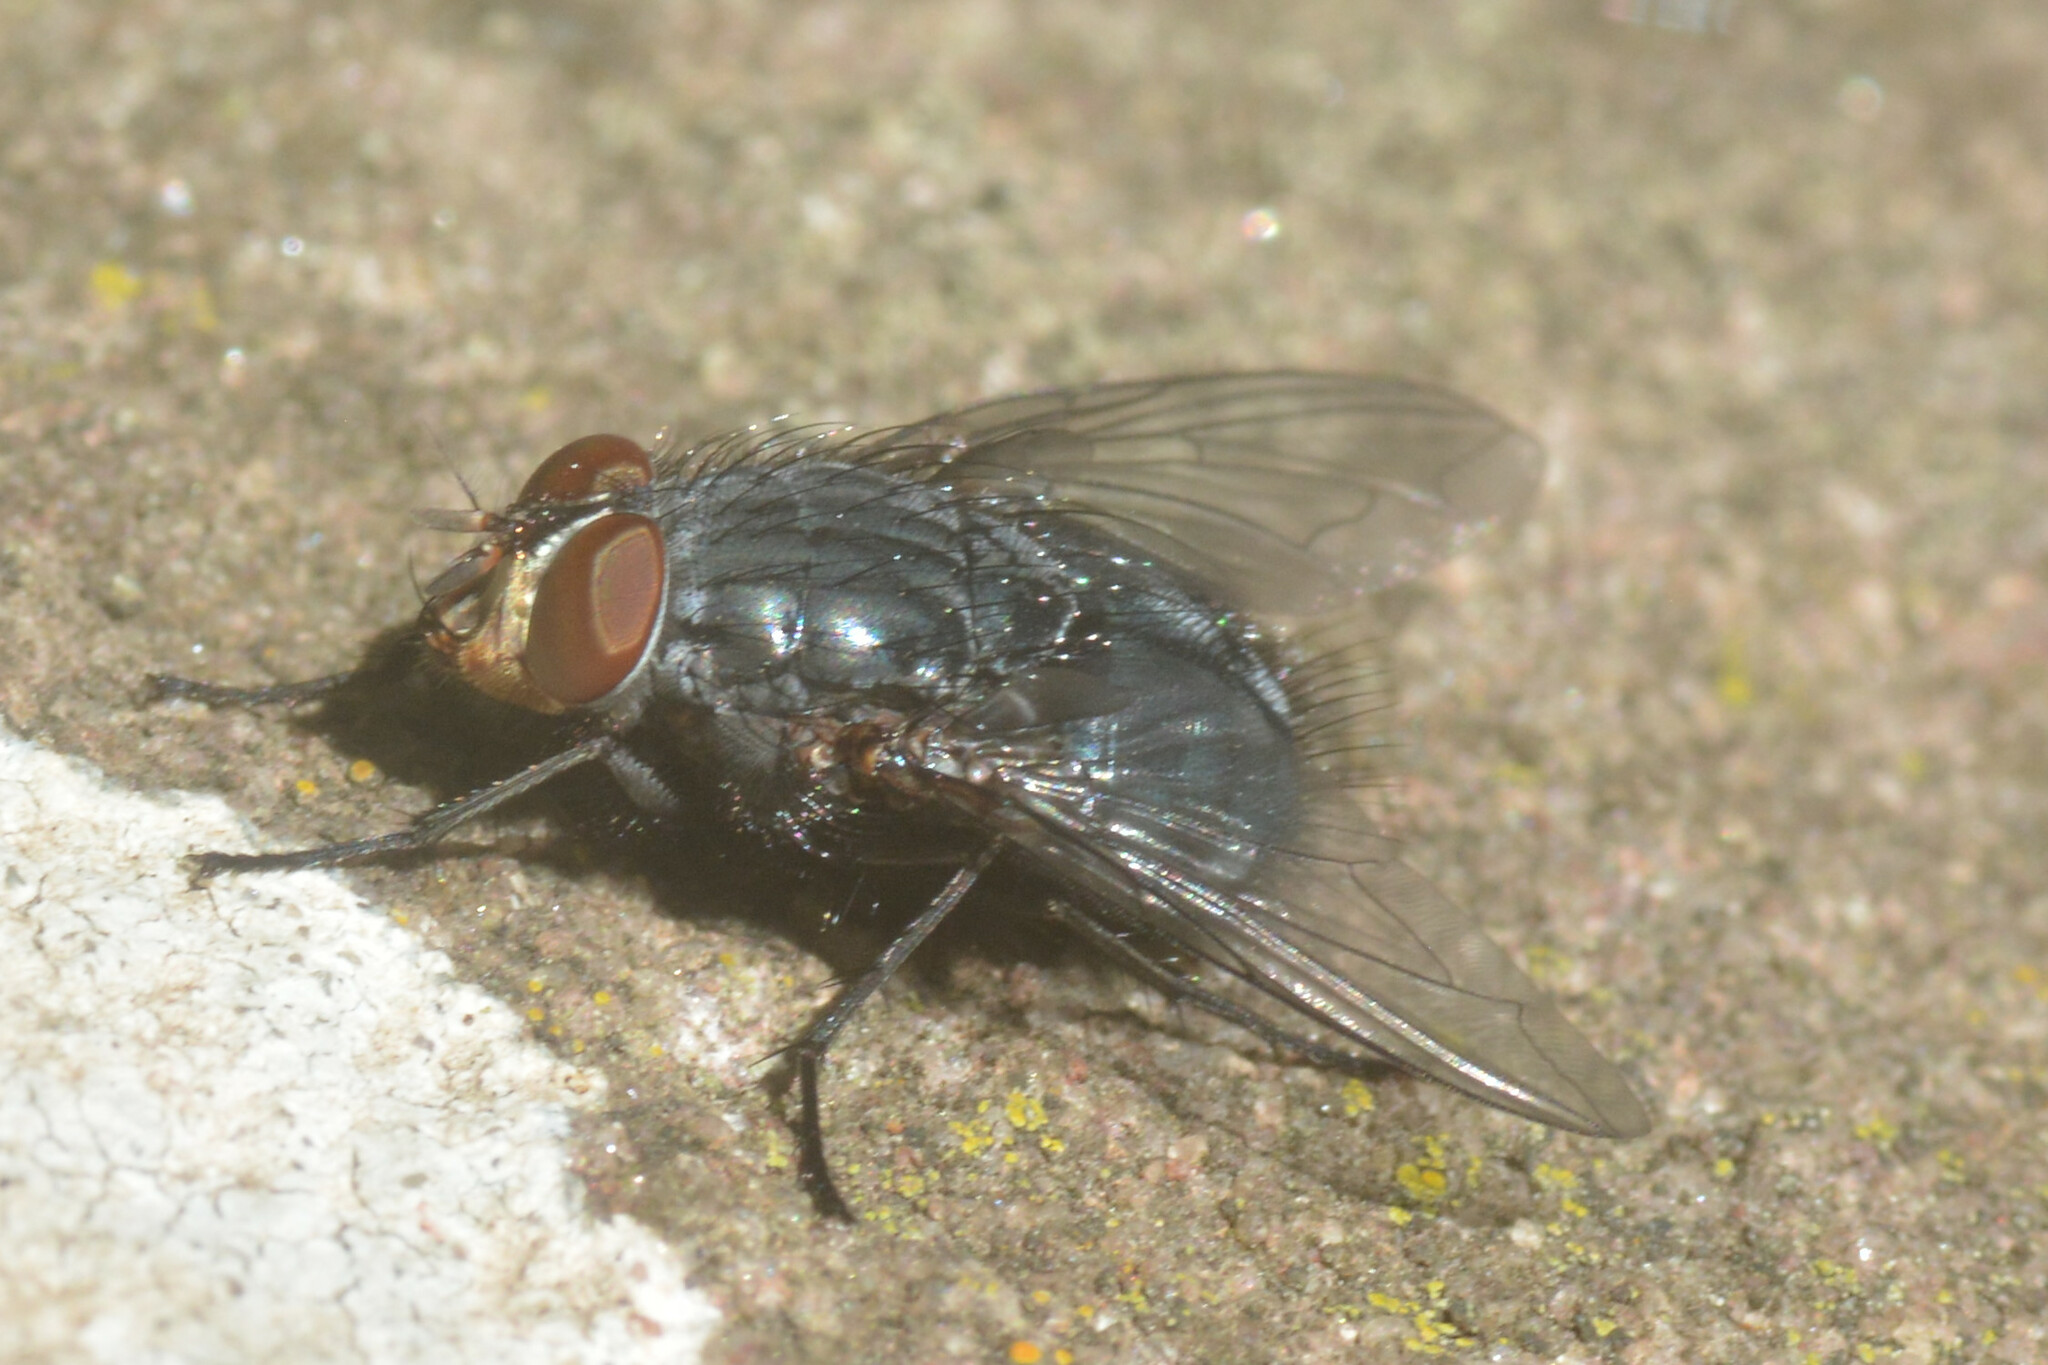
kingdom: Animalia
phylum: Arthropoda
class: Insecta
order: Diptera
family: Calliphoridae
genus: Calliphora
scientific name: Calliphora vicina
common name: Common blow flie
